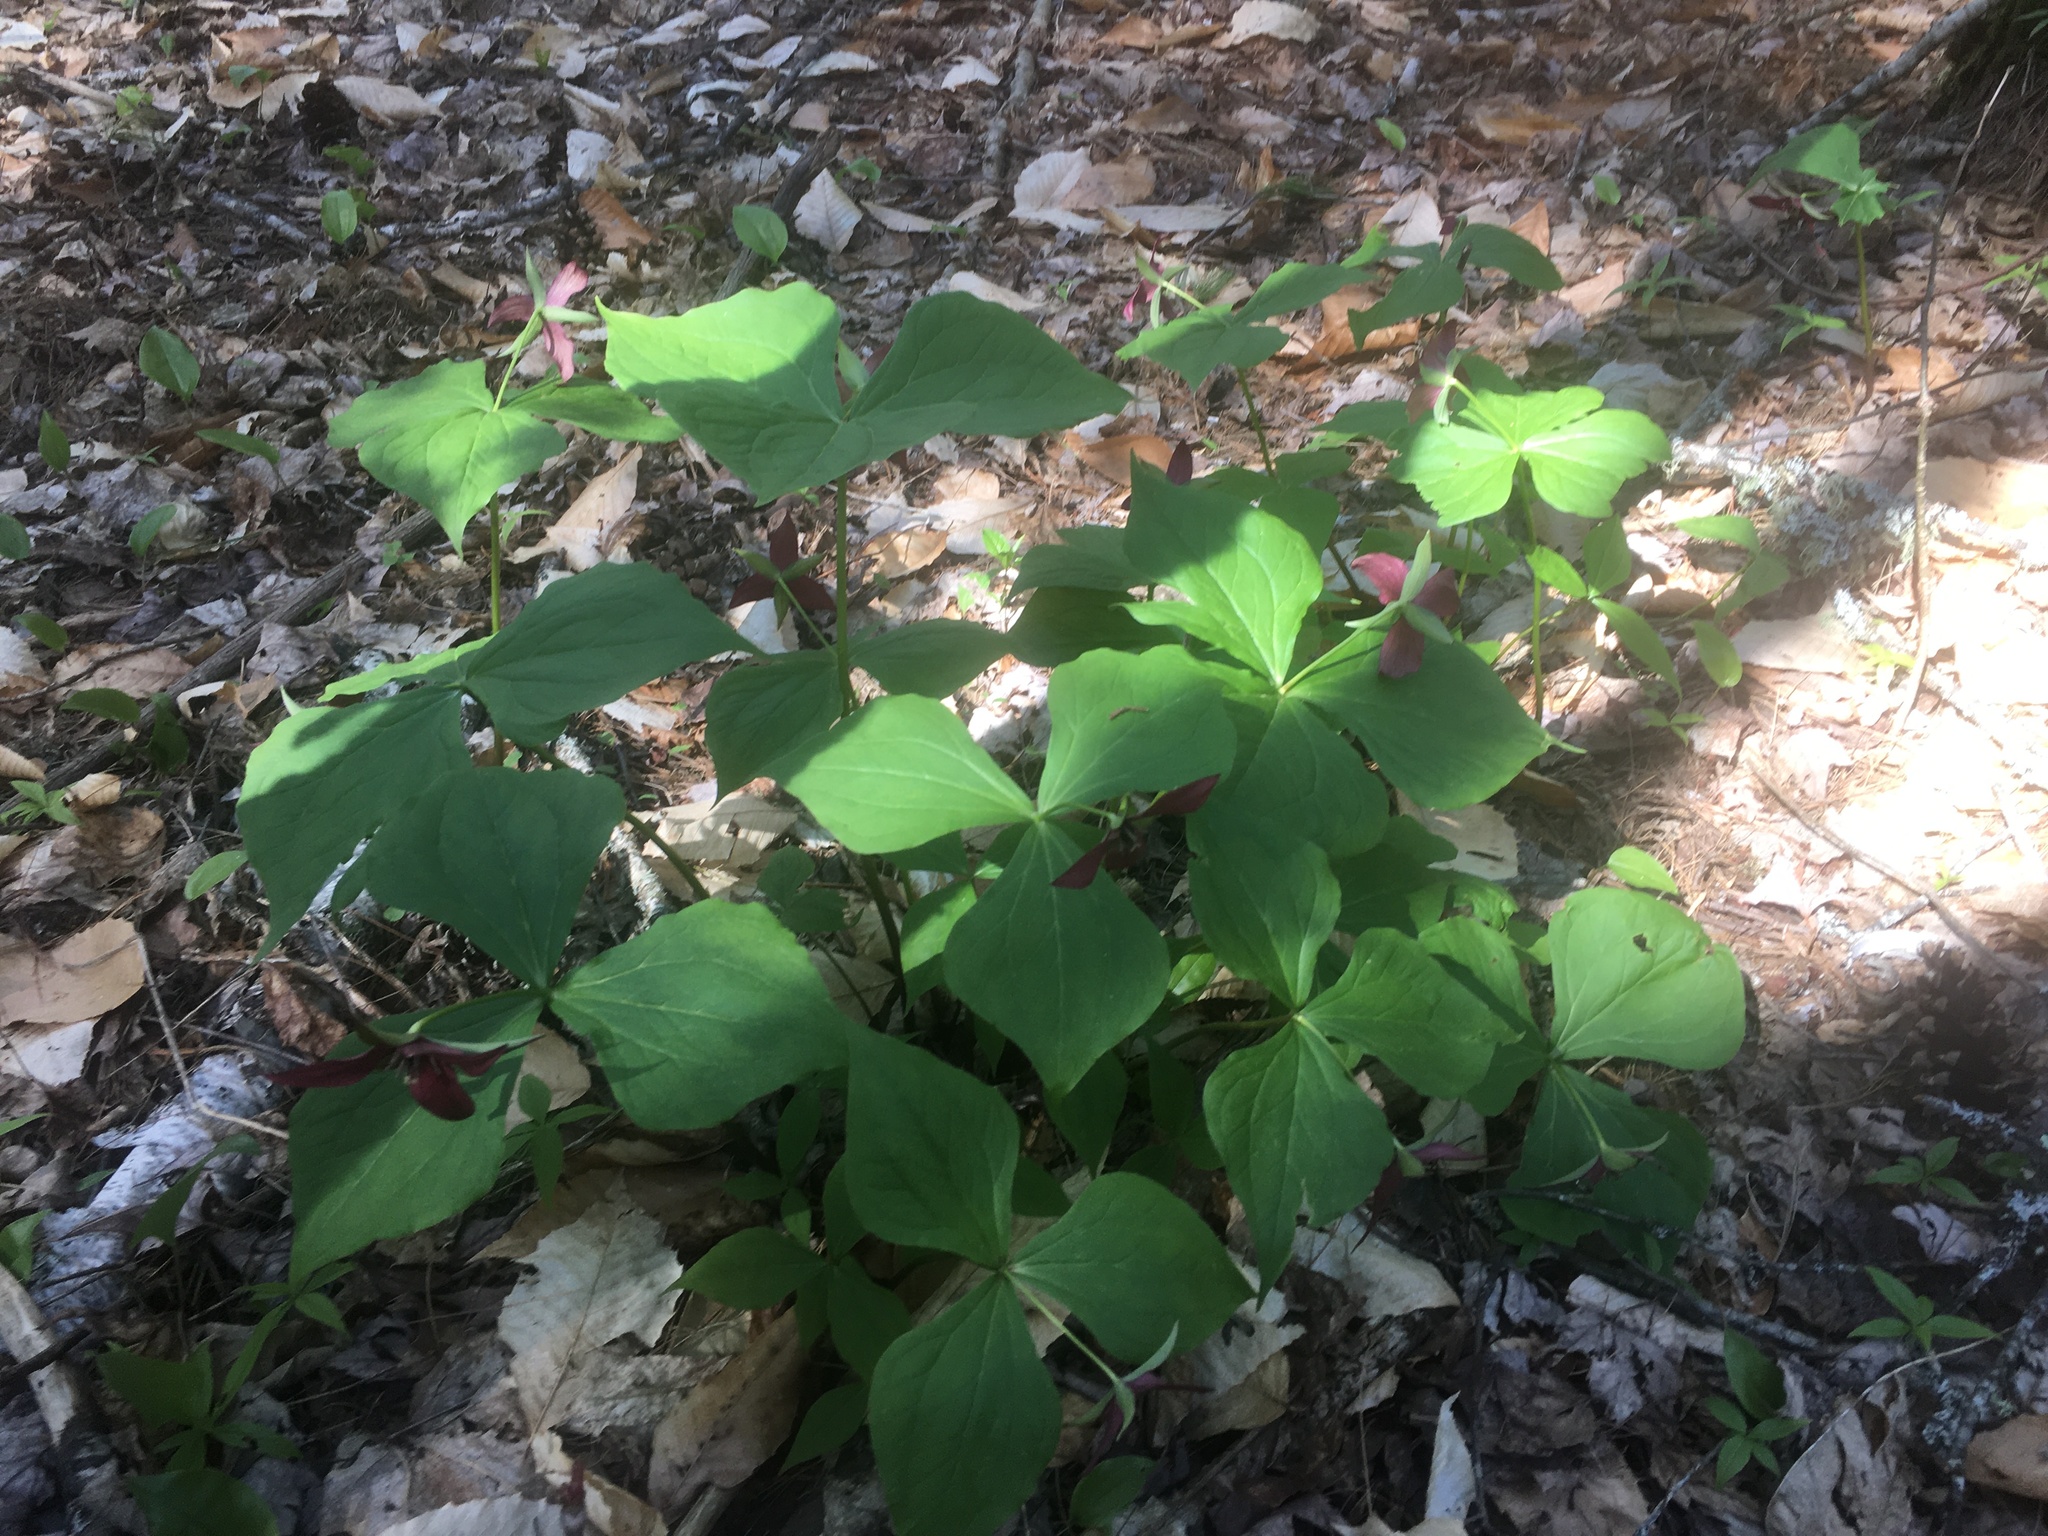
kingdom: Plantae
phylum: Tracheophyta
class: Liliopsida
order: Liliales
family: Melanthiaceae
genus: Trillium
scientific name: Trillium erectum
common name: Purple trillium
